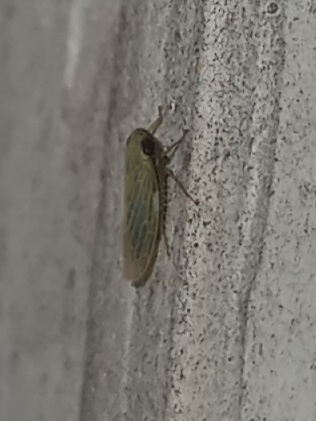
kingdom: Animalia
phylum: Arthropoda
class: Insecta
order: Hemiptera
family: Cicadellidae
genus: Graminella
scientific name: Graminella nigrifrons
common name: Blackfaced leafhopper
